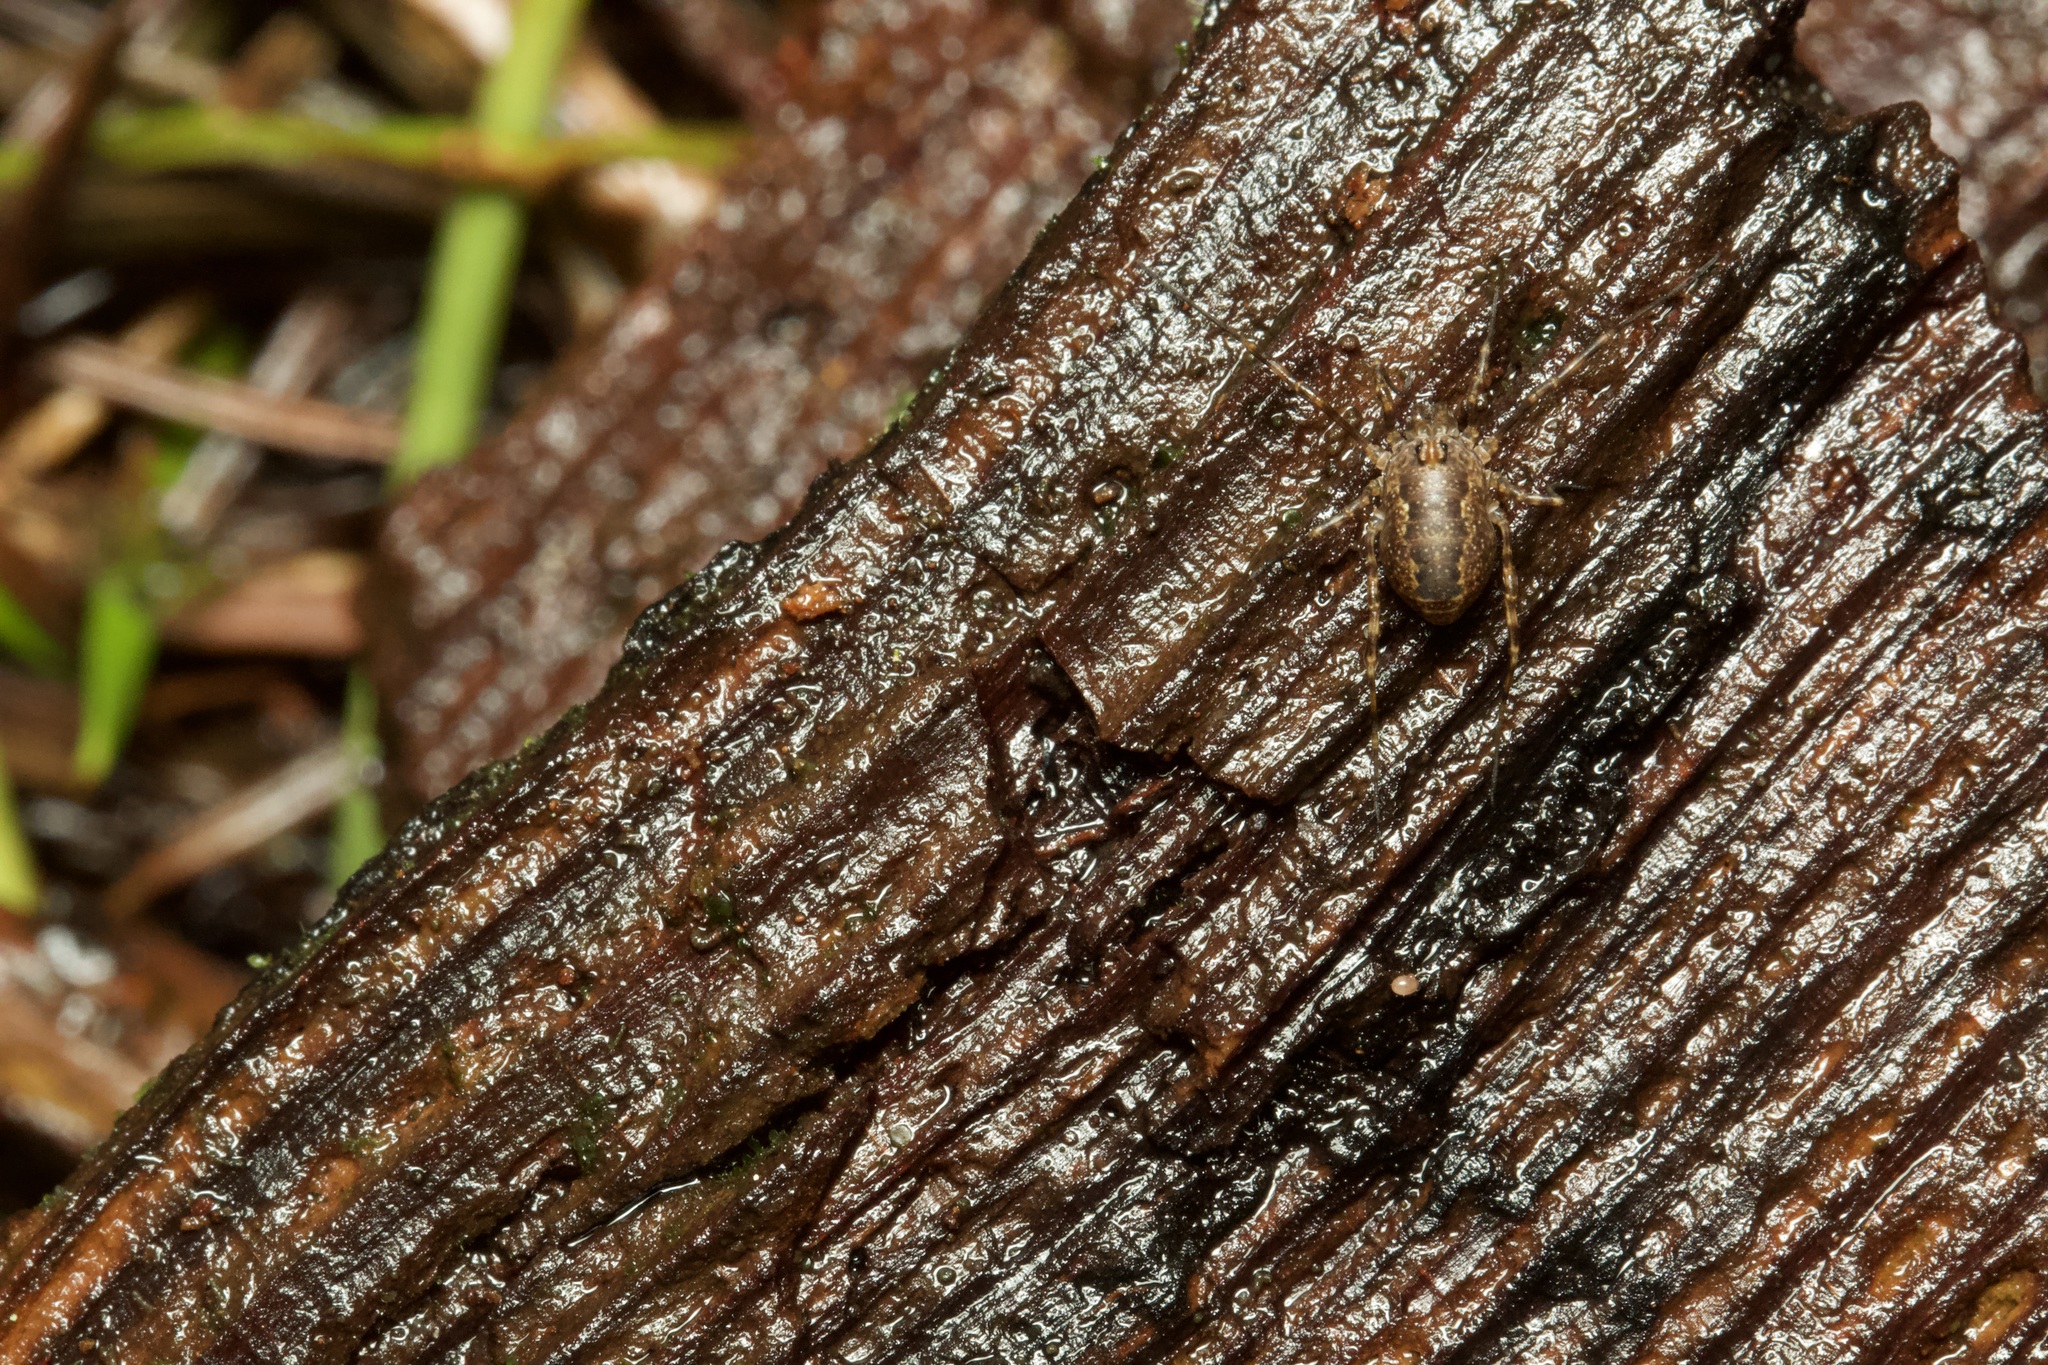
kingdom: Animalia
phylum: Arthropoda
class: Arachnida
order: Opiliones
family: Phalangiidae
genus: Rilaena
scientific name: Rilaena triangularis
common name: Spring harvestman
